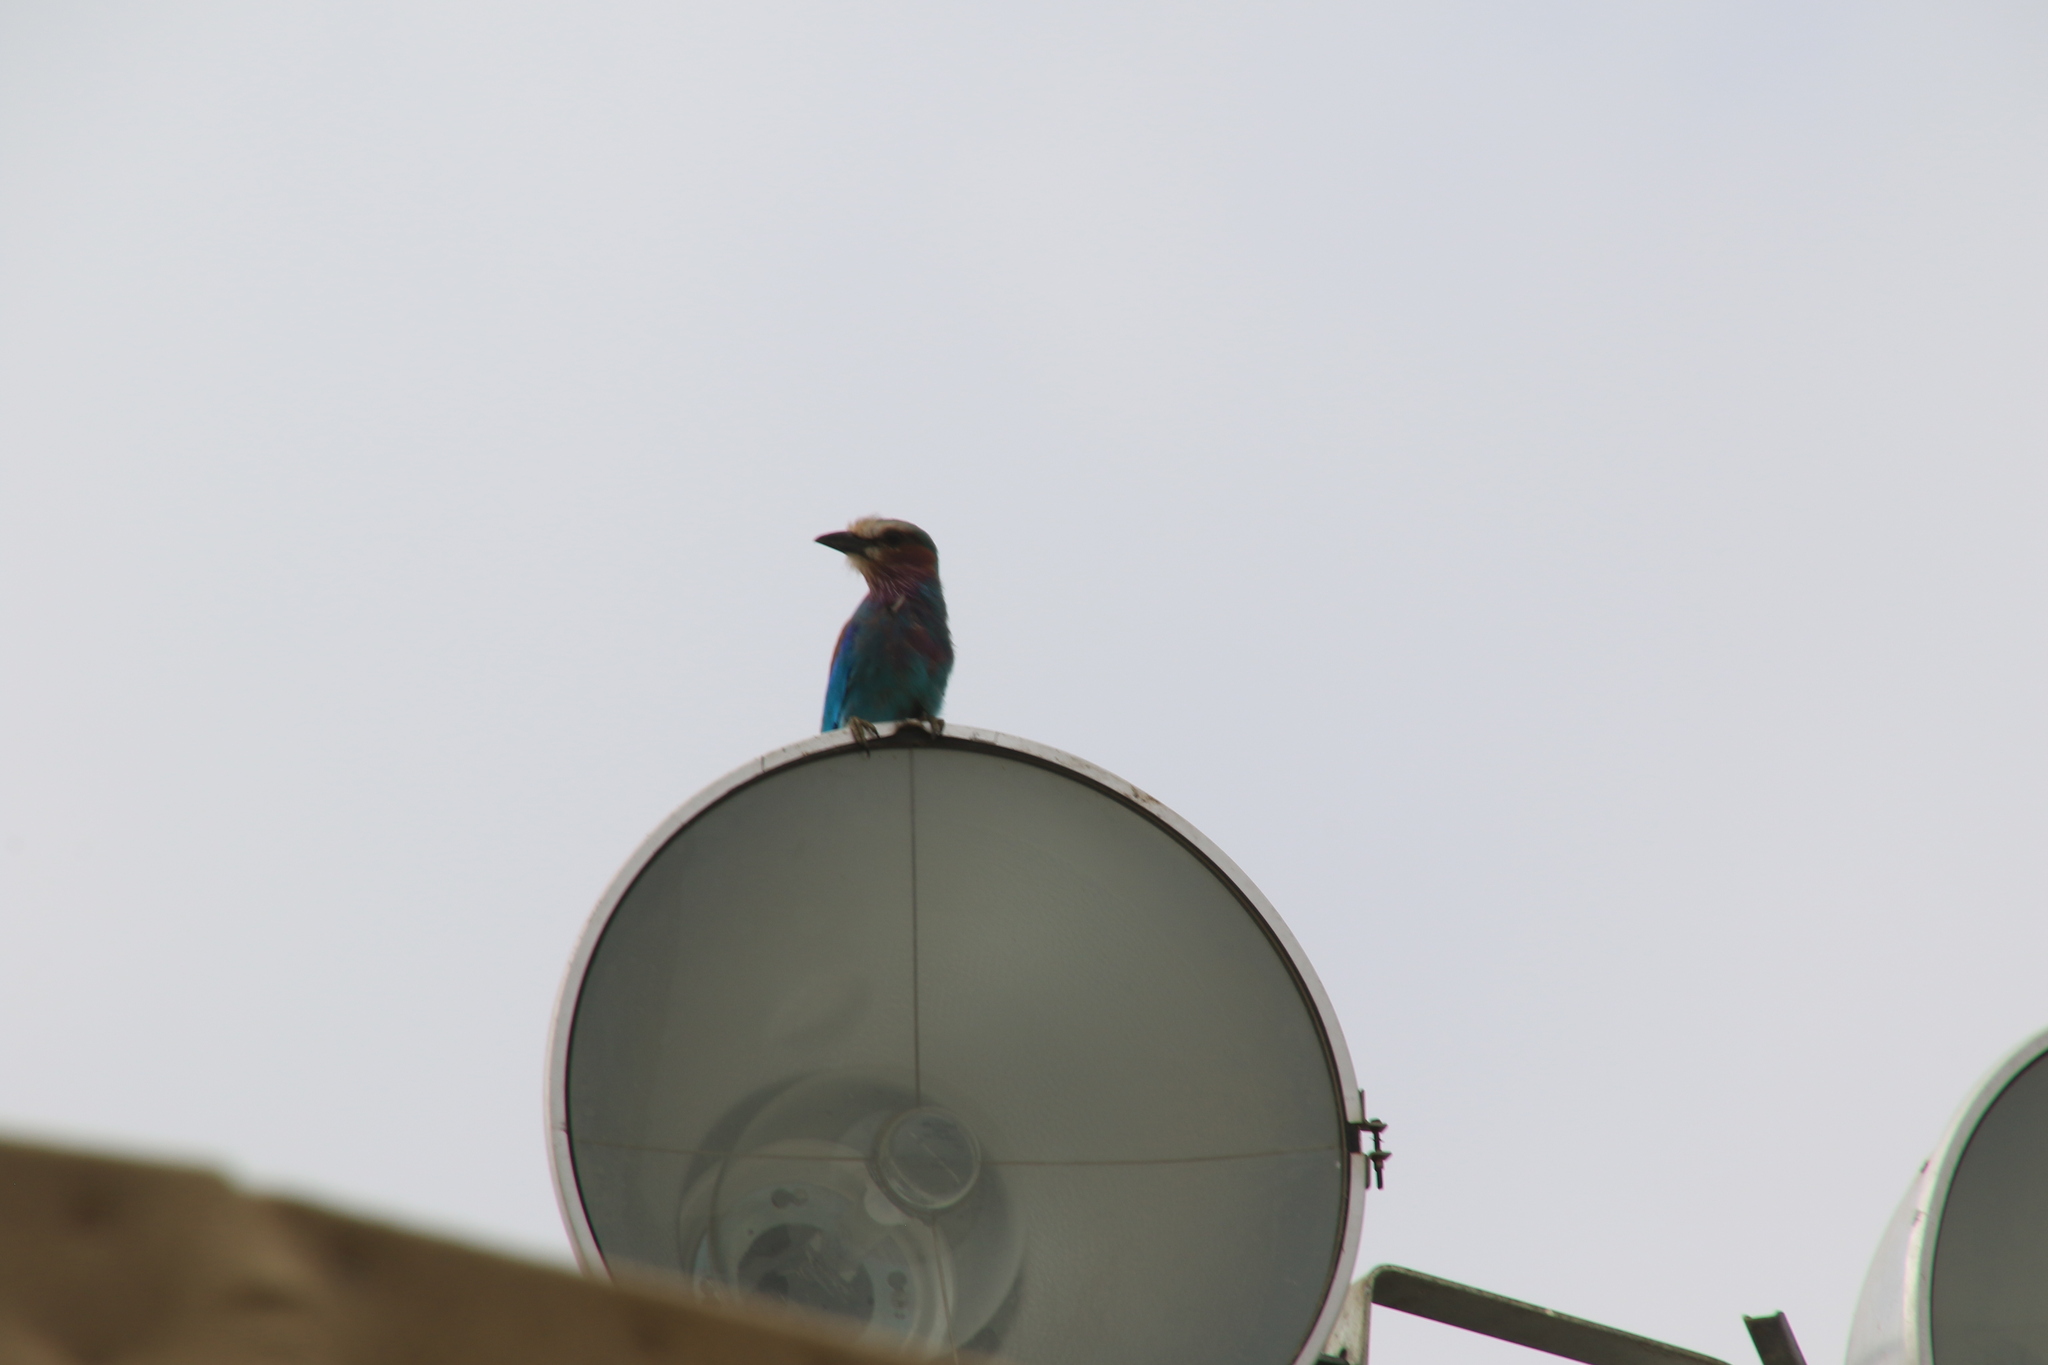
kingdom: Animalia
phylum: Chordata
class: Aves
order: Coraciiformes
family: Coraciidae
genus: Coracias
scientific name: Coracias caudatus
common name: Lilac-breasted roller
